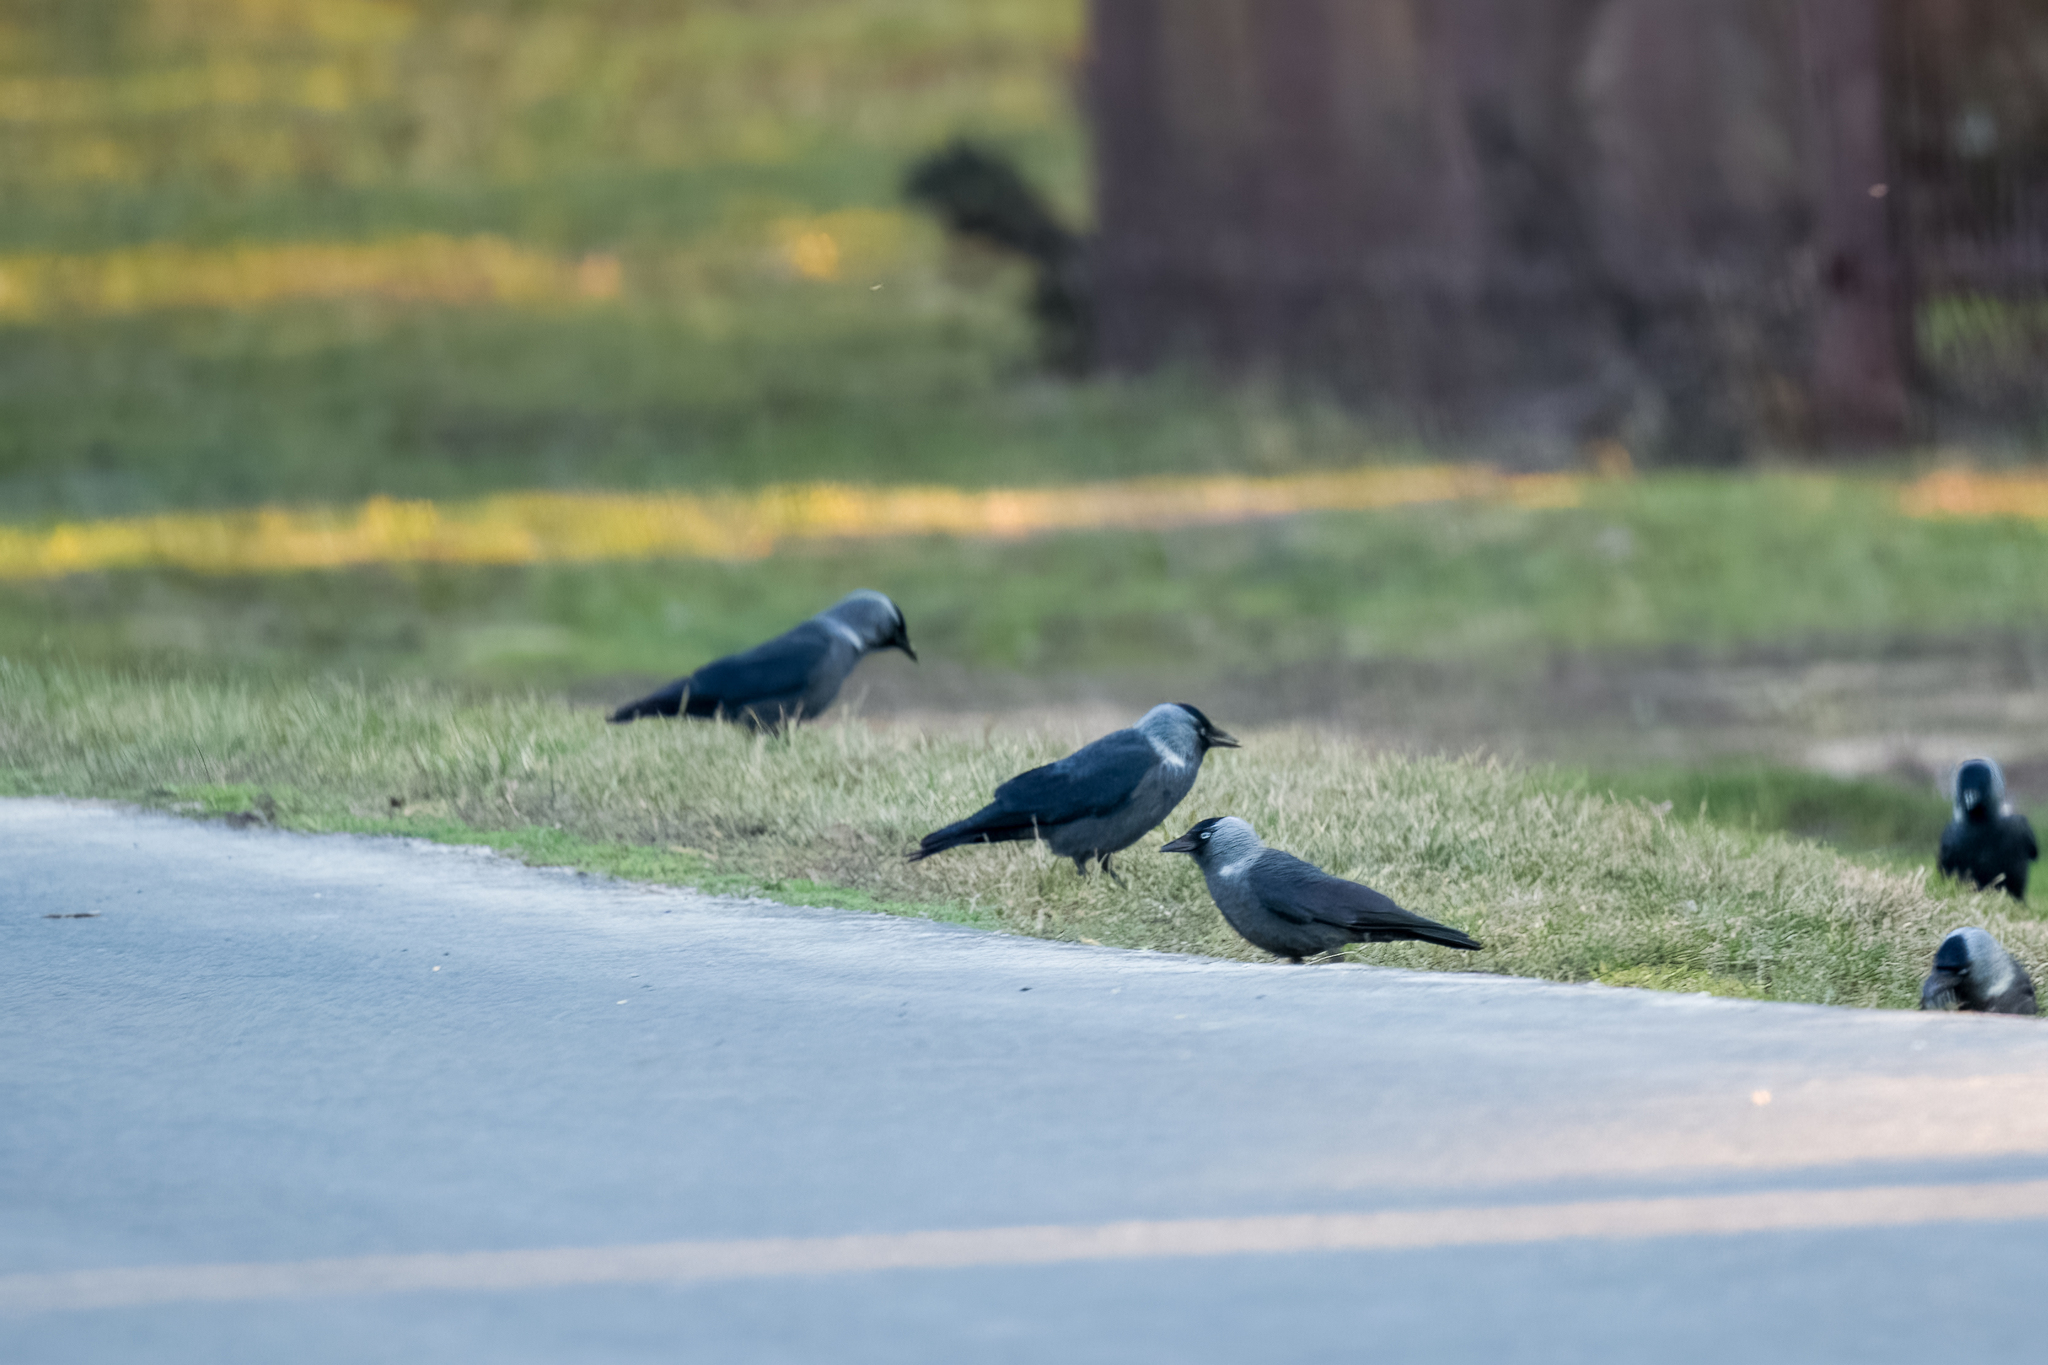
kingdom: Animalia
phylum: Chordata
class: Aves
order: Passeriformes
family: Corvidae
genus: Coloeus
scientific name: Coloeus monedula
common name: Western jackdaw
